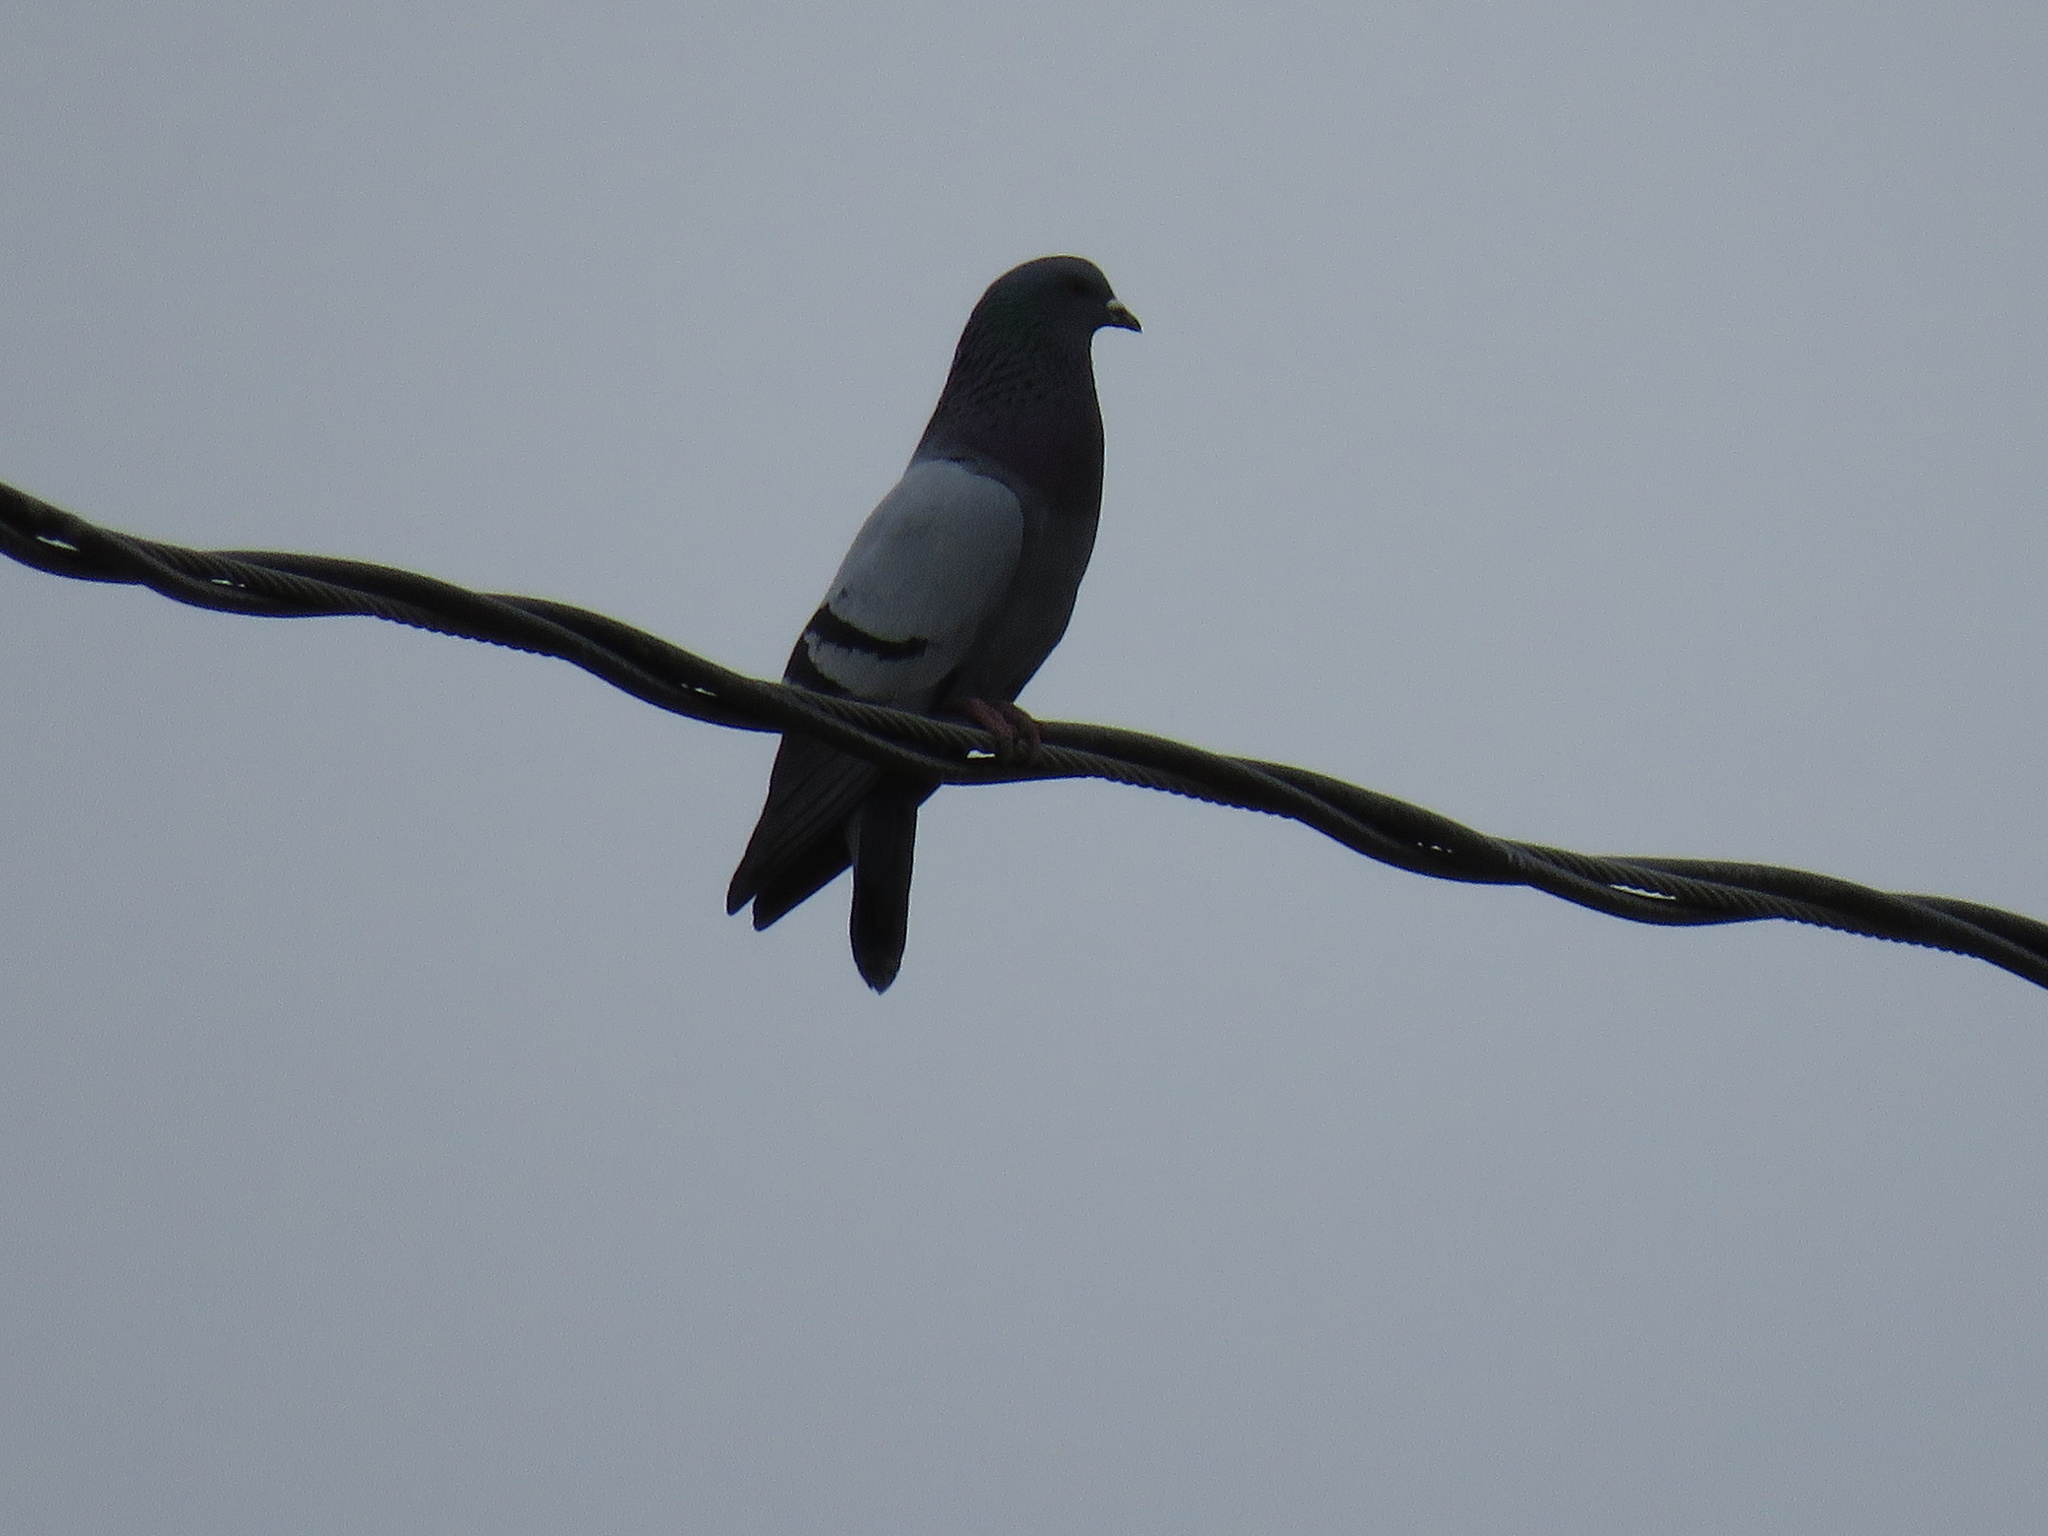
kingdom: Animalia
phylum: Chordata
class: Aves
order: Columbiformes
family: Columbidae
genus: Columba
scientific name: Columba livia
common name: Rock pigeon
